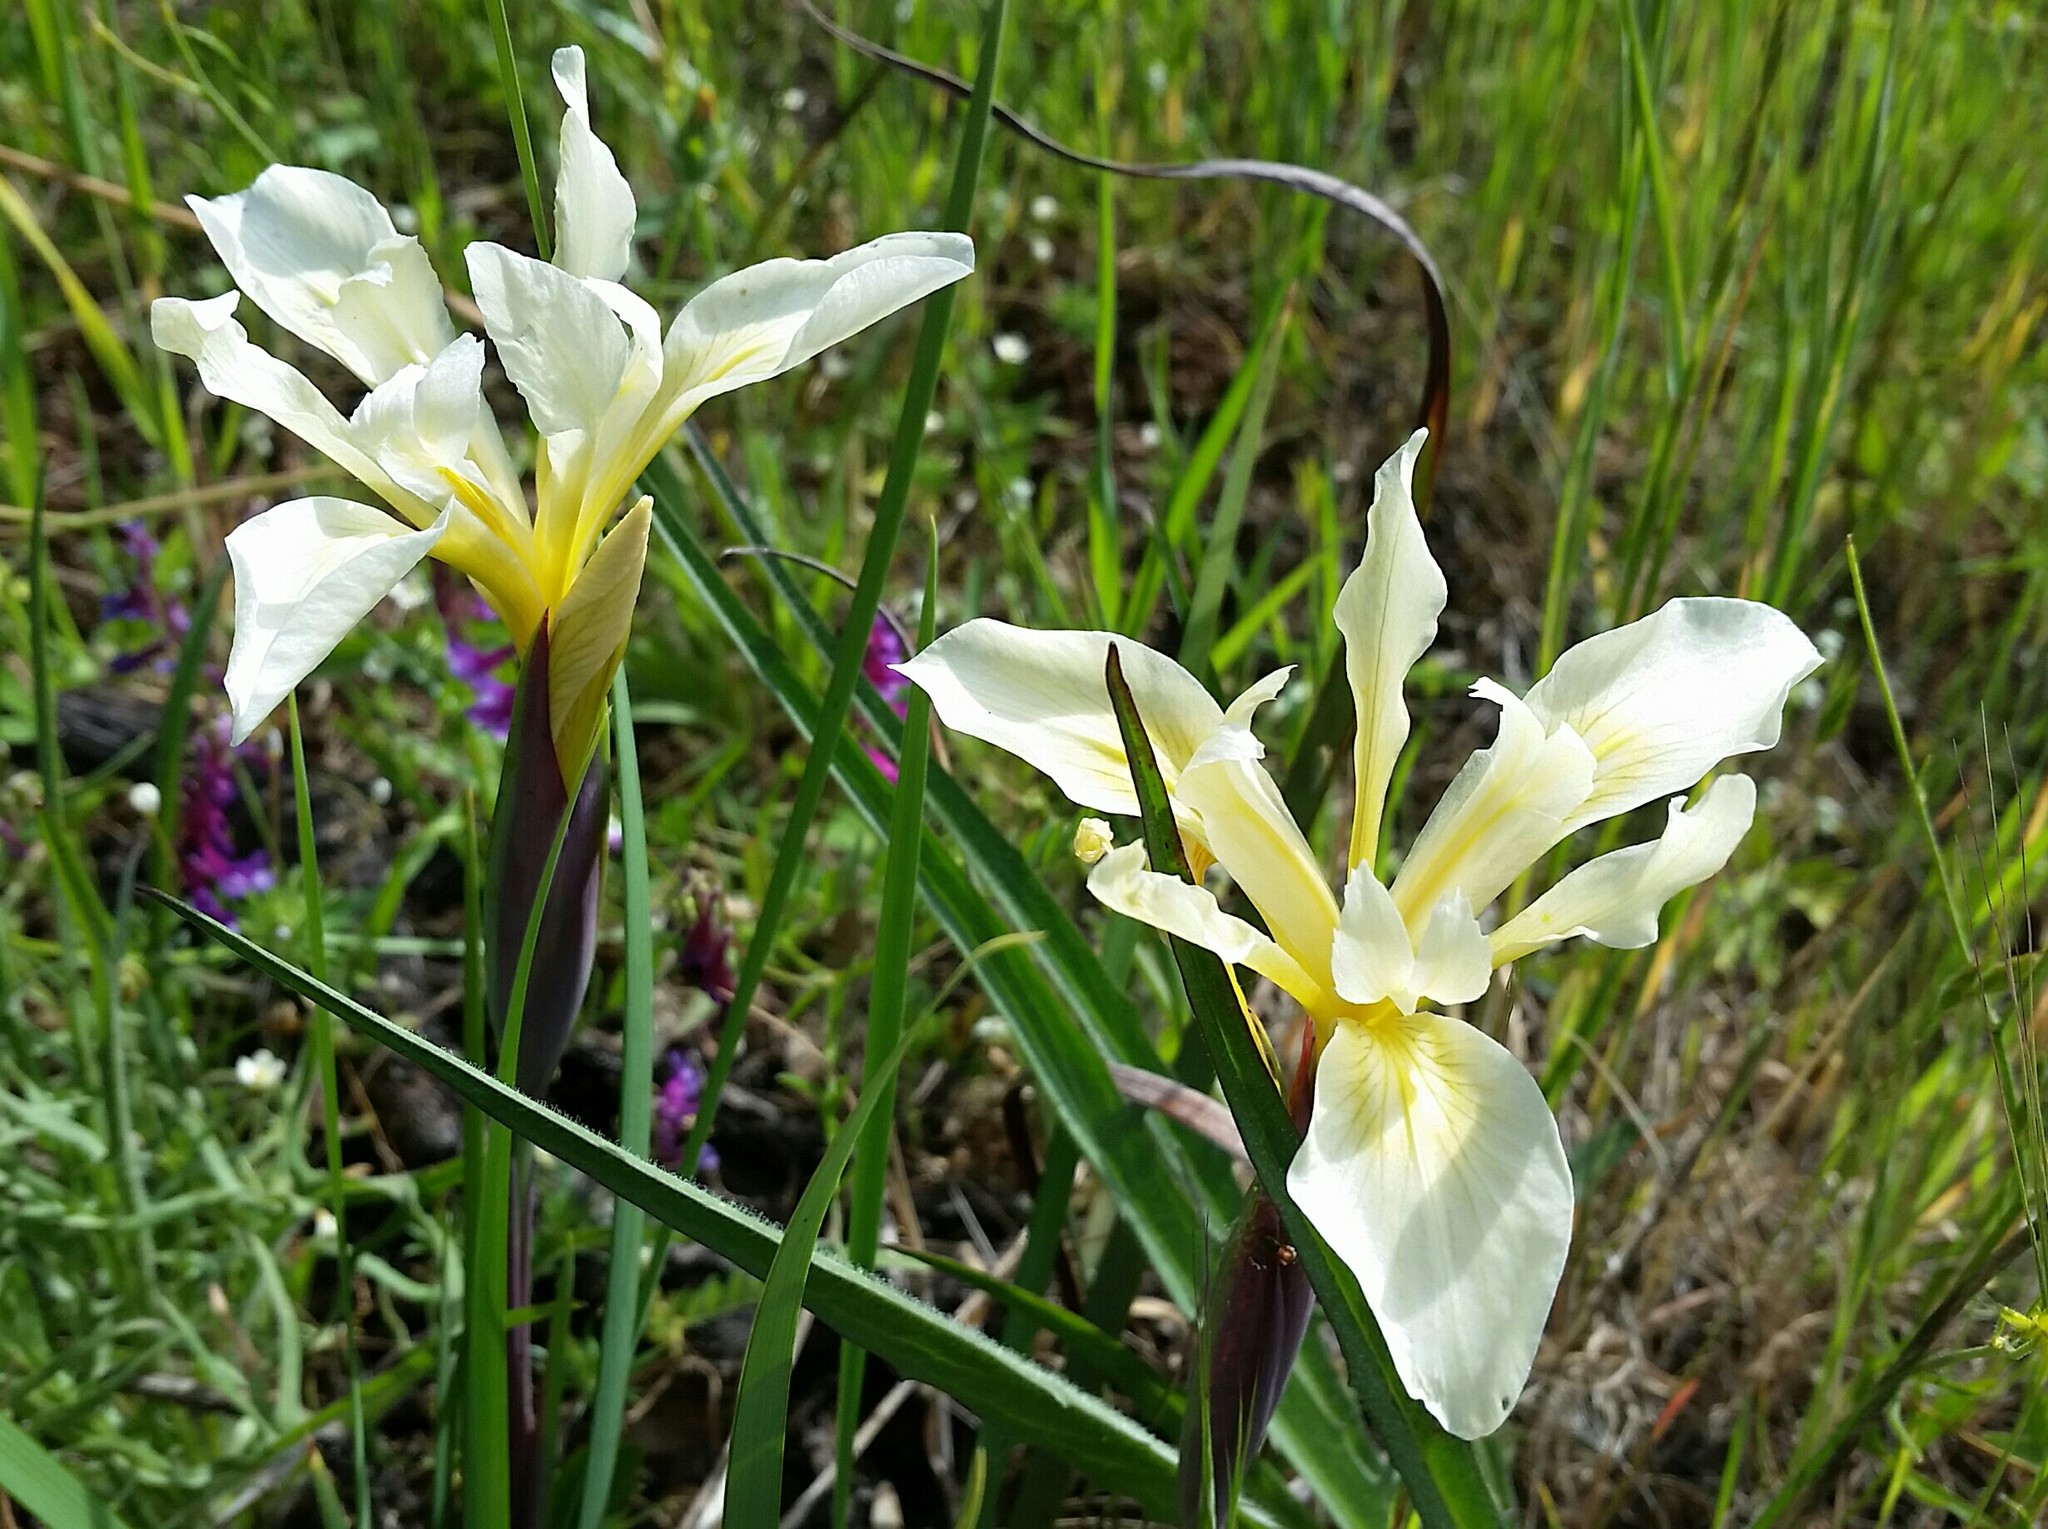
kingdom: Plantae
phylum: Tracheophyta
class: Liliopsida
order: Asparagales
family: Iridaceae
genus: Iris
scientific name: Iris fernaldii
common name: Fernald's iris
